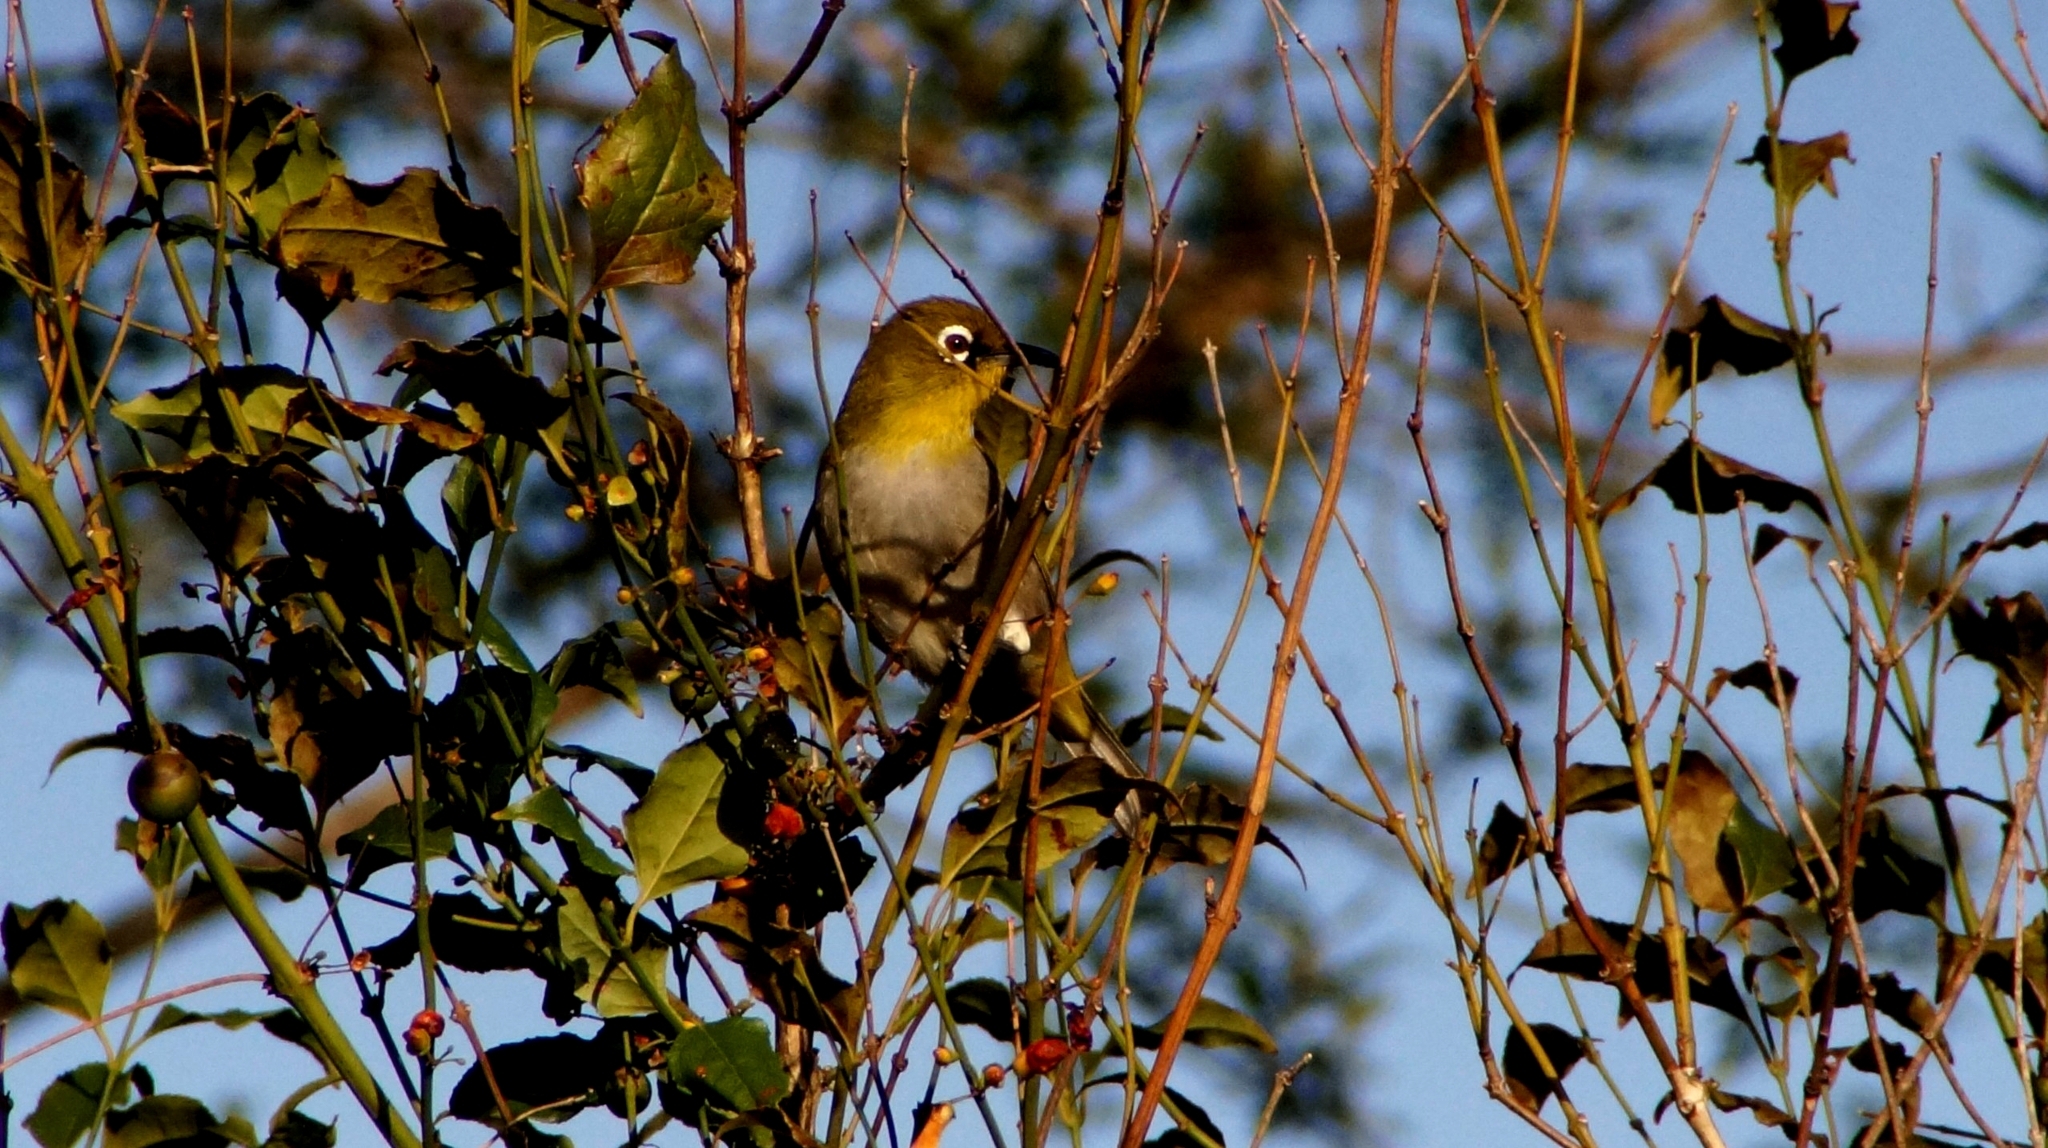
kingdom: Animalia
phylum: Chordata
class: Aves
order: Passeriformes
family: Zosteropidae
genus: Zosterops
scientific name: Zosterops virens
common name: Cape white-eye
